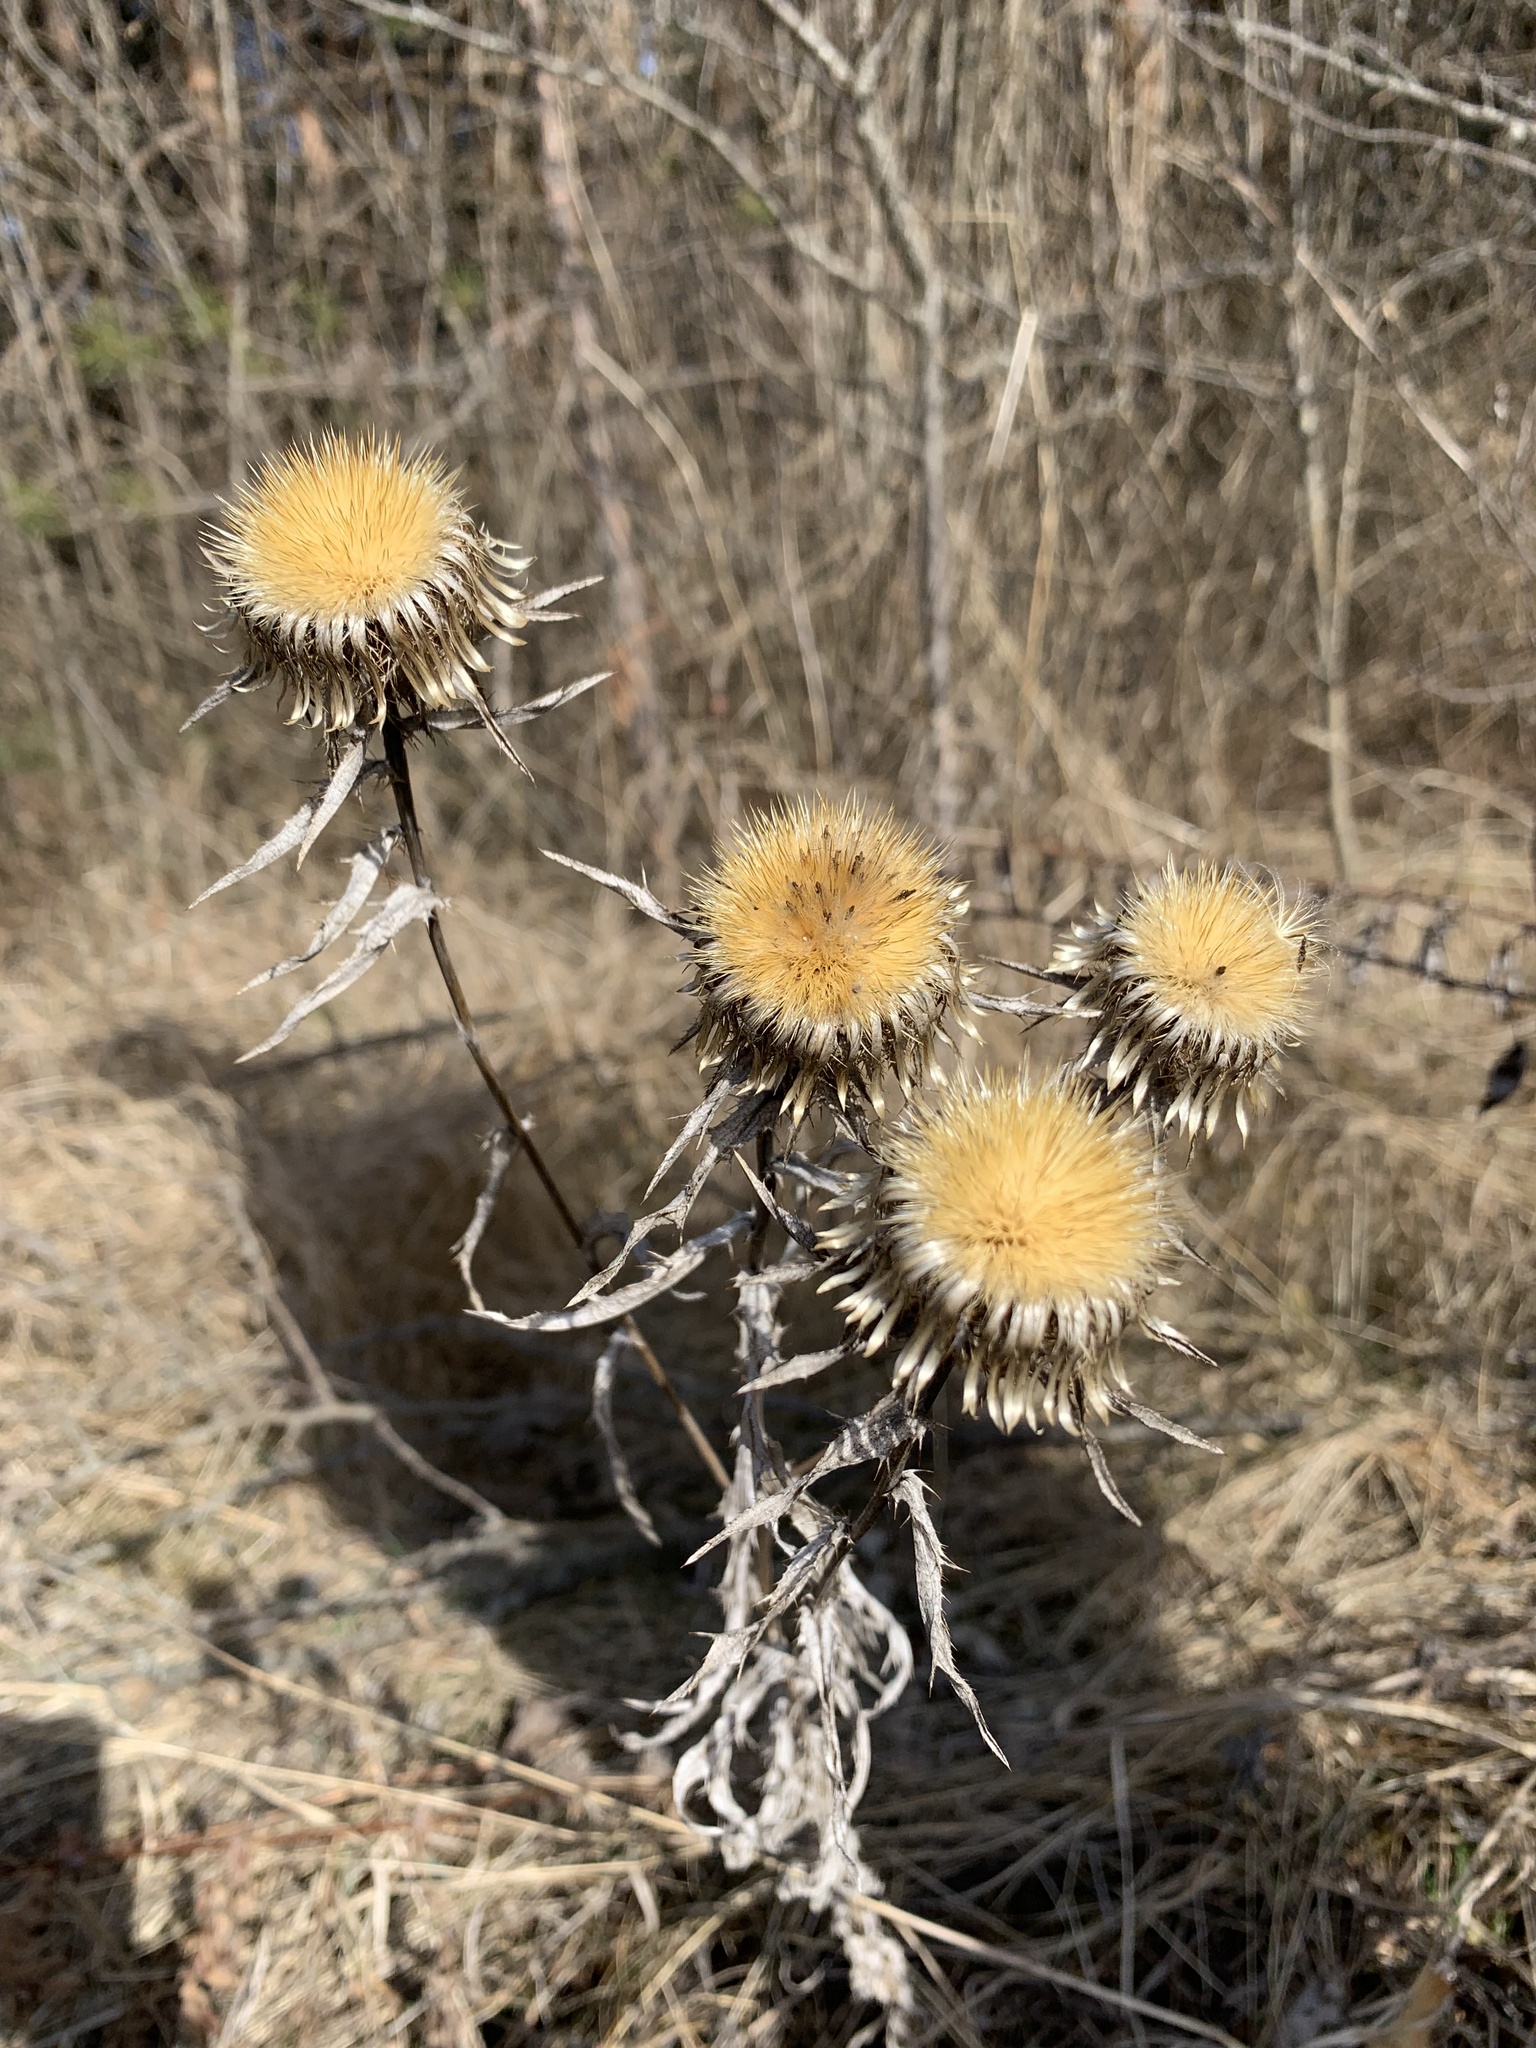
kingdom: Plantae
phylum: Tracheophyta
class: Magnoliopsida
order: Asterales
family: Asteraceae
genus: Carlina
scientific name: Carlina biebersteinii
